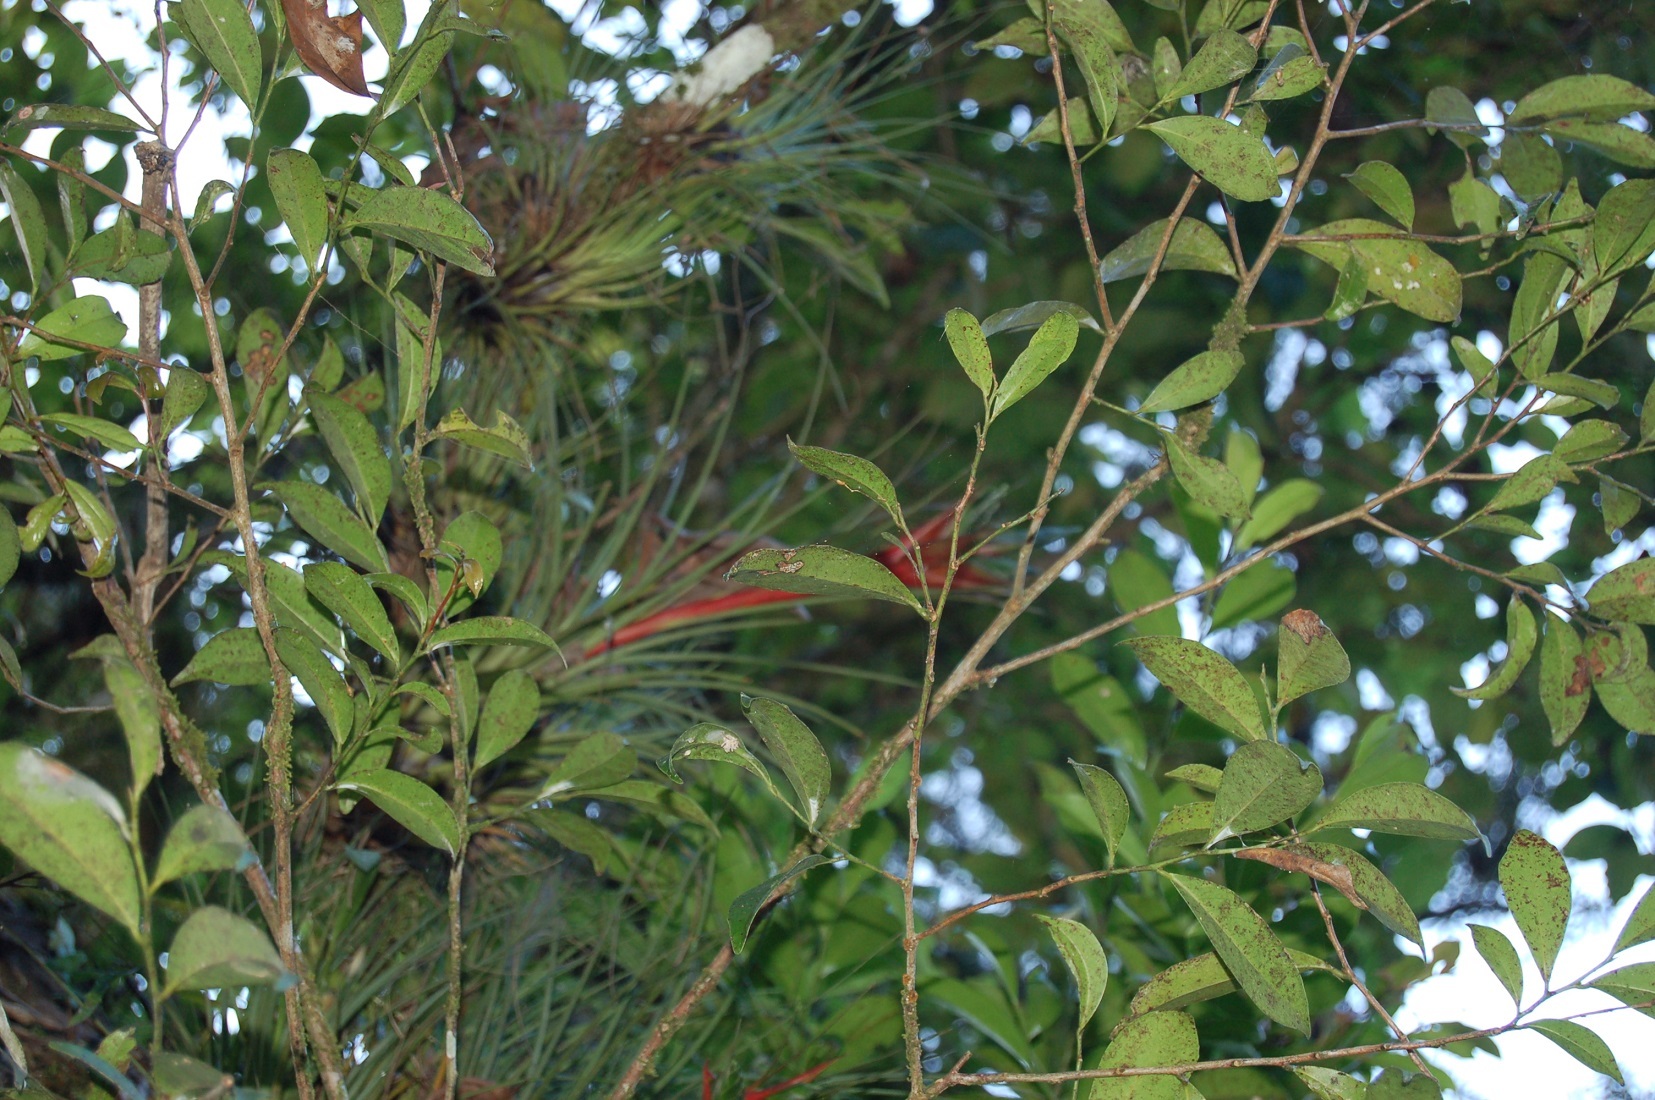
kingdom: Plantae
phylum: Tracheophyta
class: Liliopsida
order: Poales
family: Bromeliaceae
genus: Tillandsia
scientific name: Tillandsia punctulata
